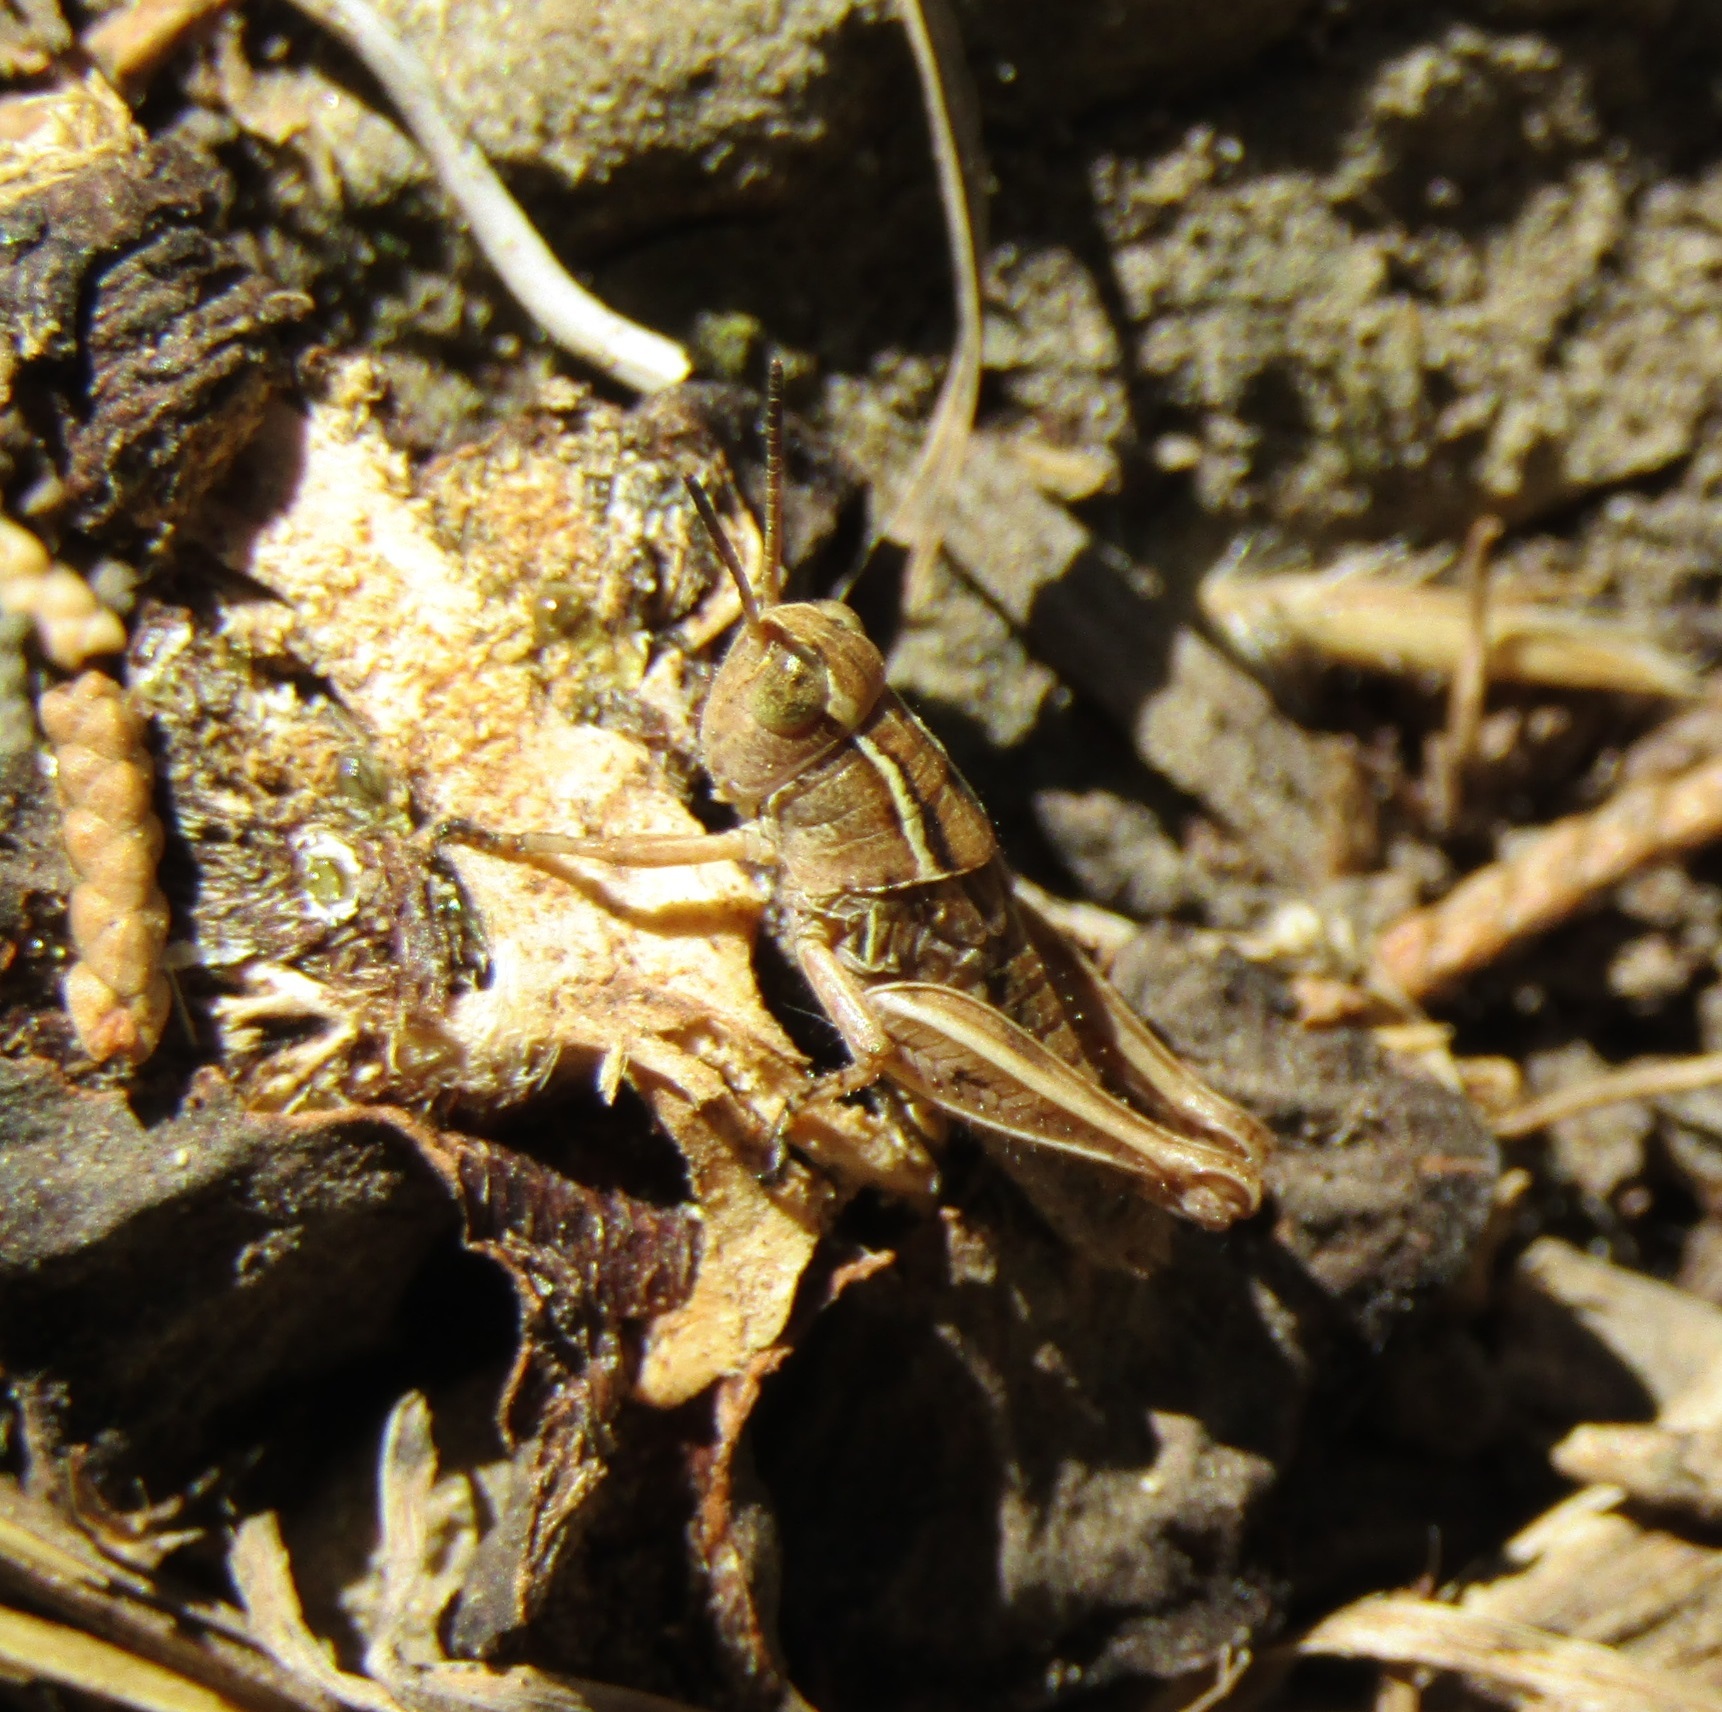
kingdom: Animalia
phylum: Arthropoda
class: Insecta
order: Orthoptera
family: Acrididae
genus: Phaulacridium
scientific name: Phaulacridium marginale
